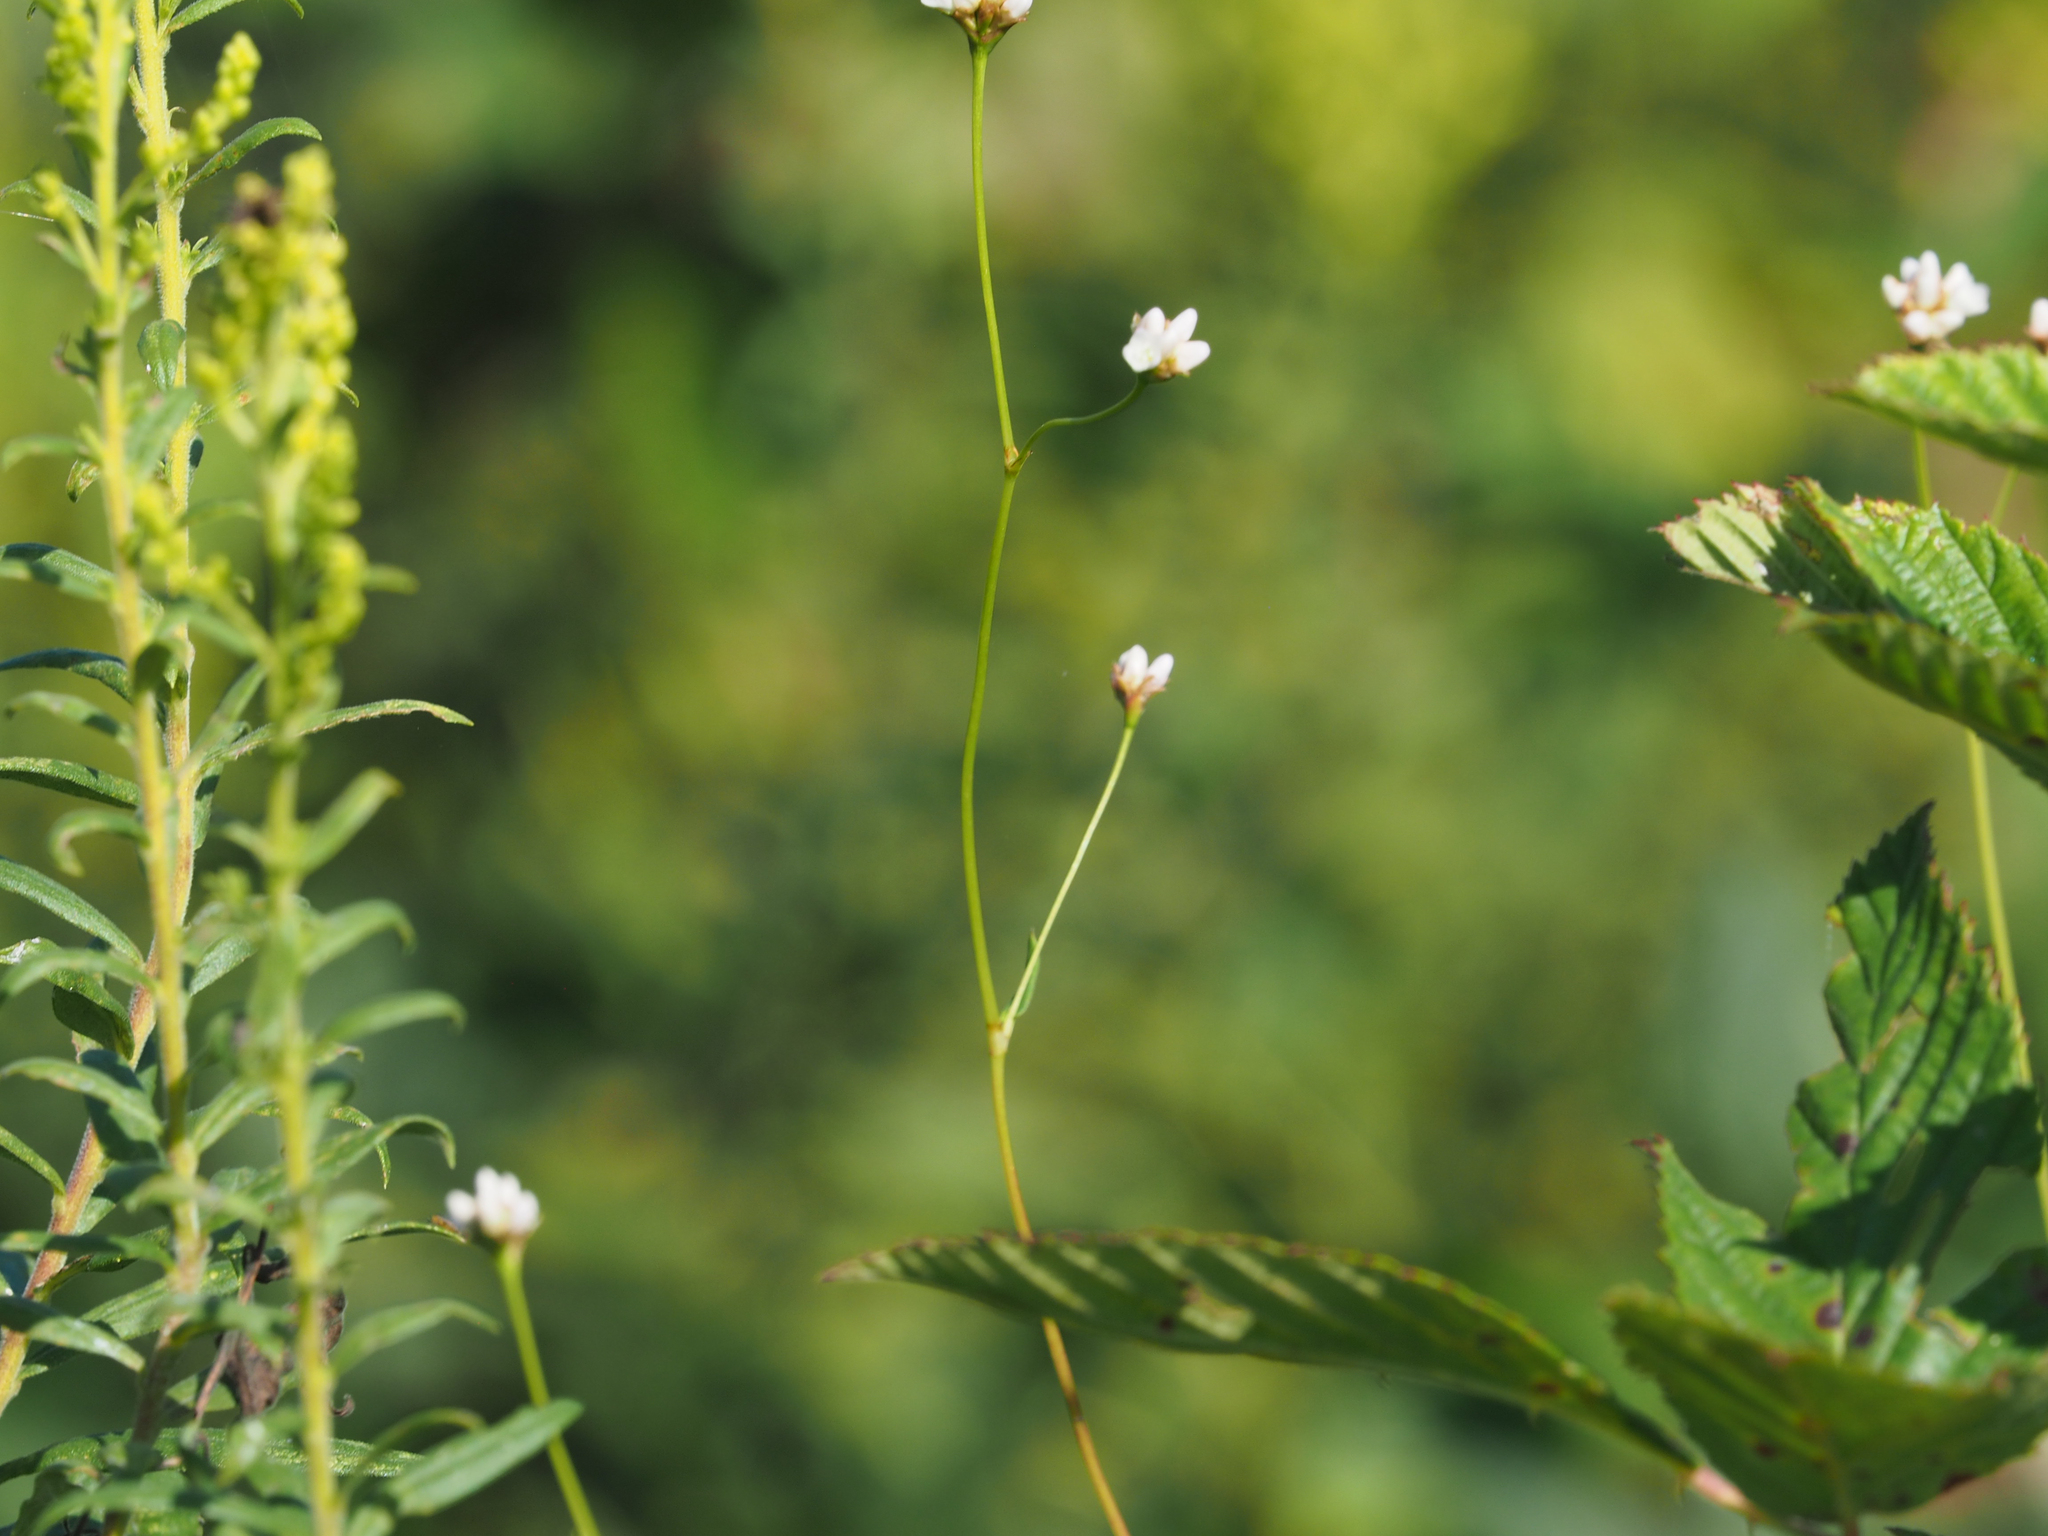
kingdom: Plantae
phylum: Tracheophyta
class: Magnoliopsida
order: Caryophyllales
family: Polygonaceae
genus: Persicaria
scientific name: Persicaria sagittata
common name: American tearthumb
